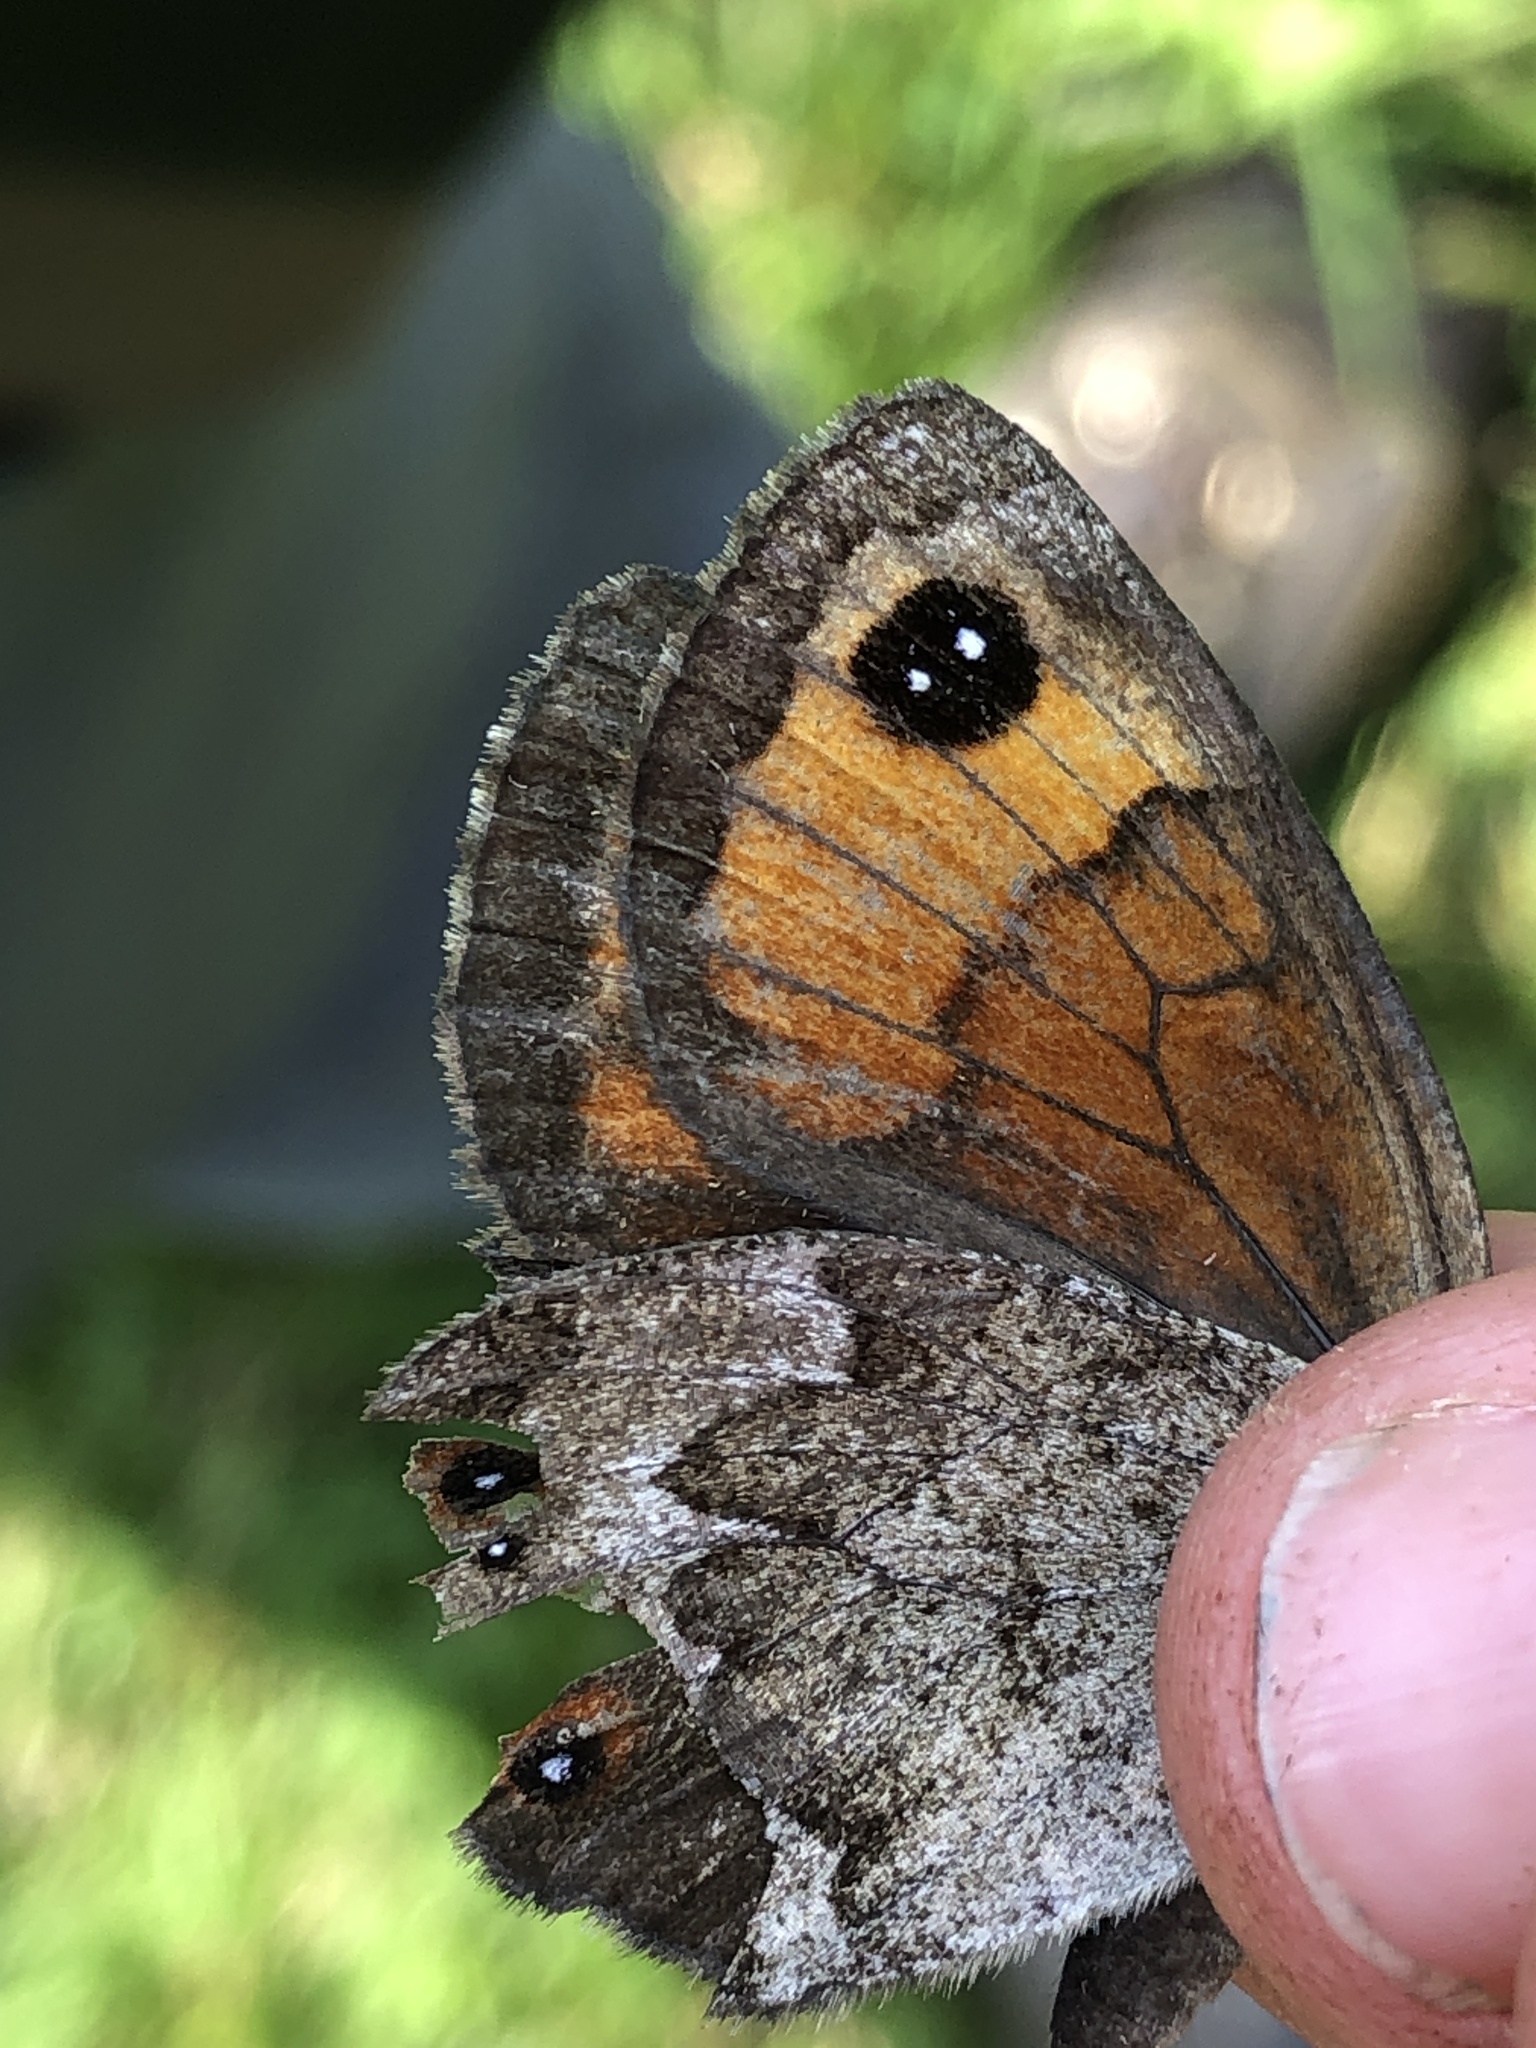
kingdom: Animalia
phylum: Arthropoda
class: Insecta
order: Lepidoptera
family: Nymphalidae
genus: Callerebia
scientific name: Callerebia mani
